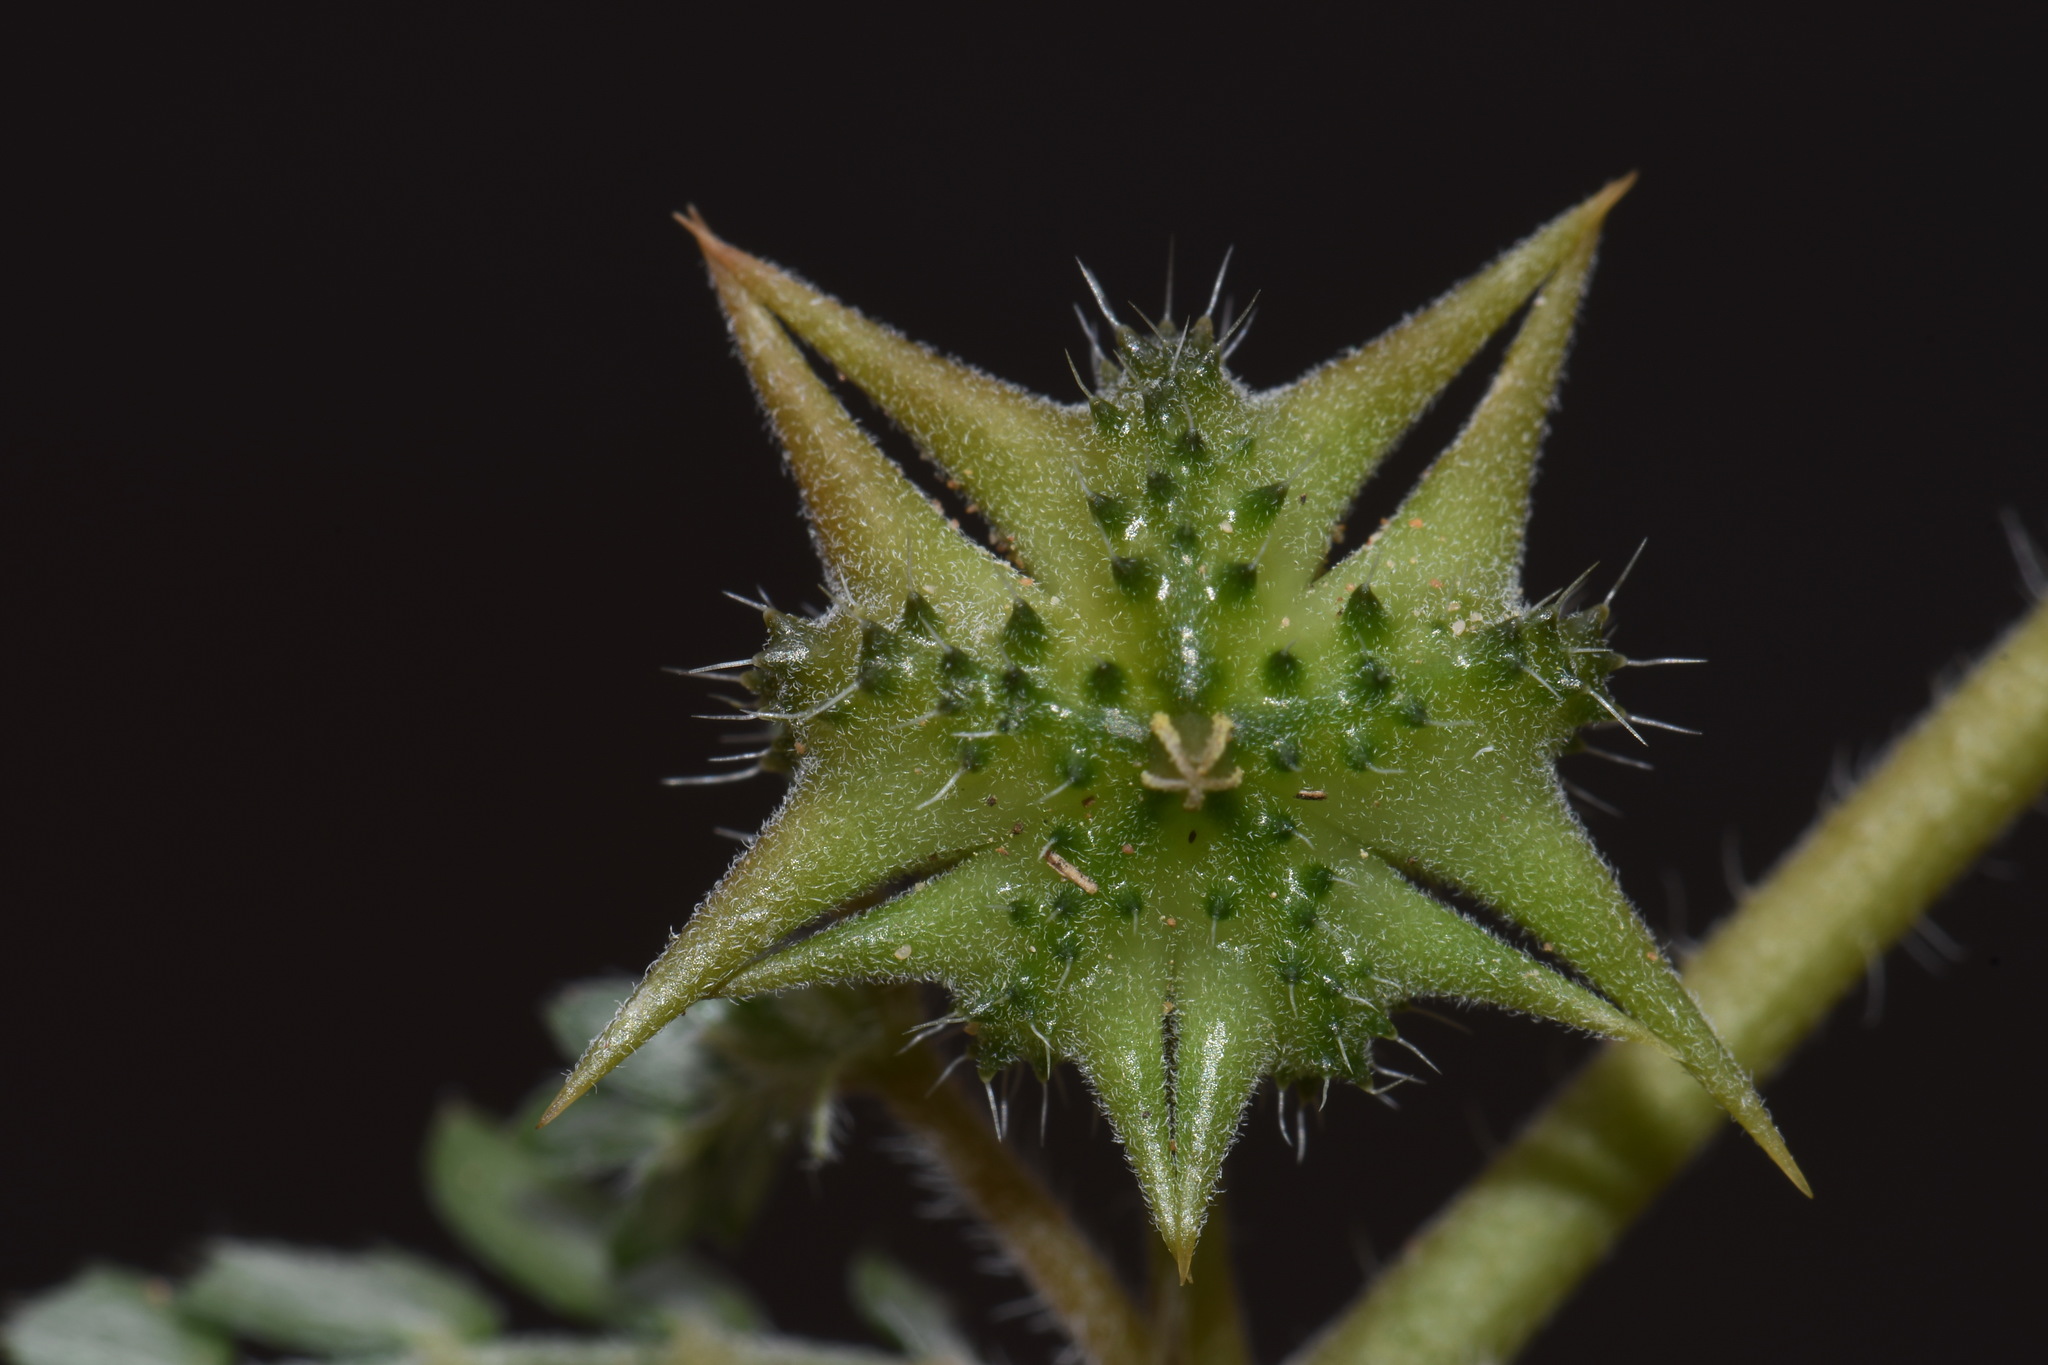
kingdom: Plantae
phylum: Tracheophyta
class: Magnoliopsida
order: Zygophyllales
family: Zygophyllaceae
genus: Tribulus
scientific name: Tribulus terrestris
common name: Puncturevine
